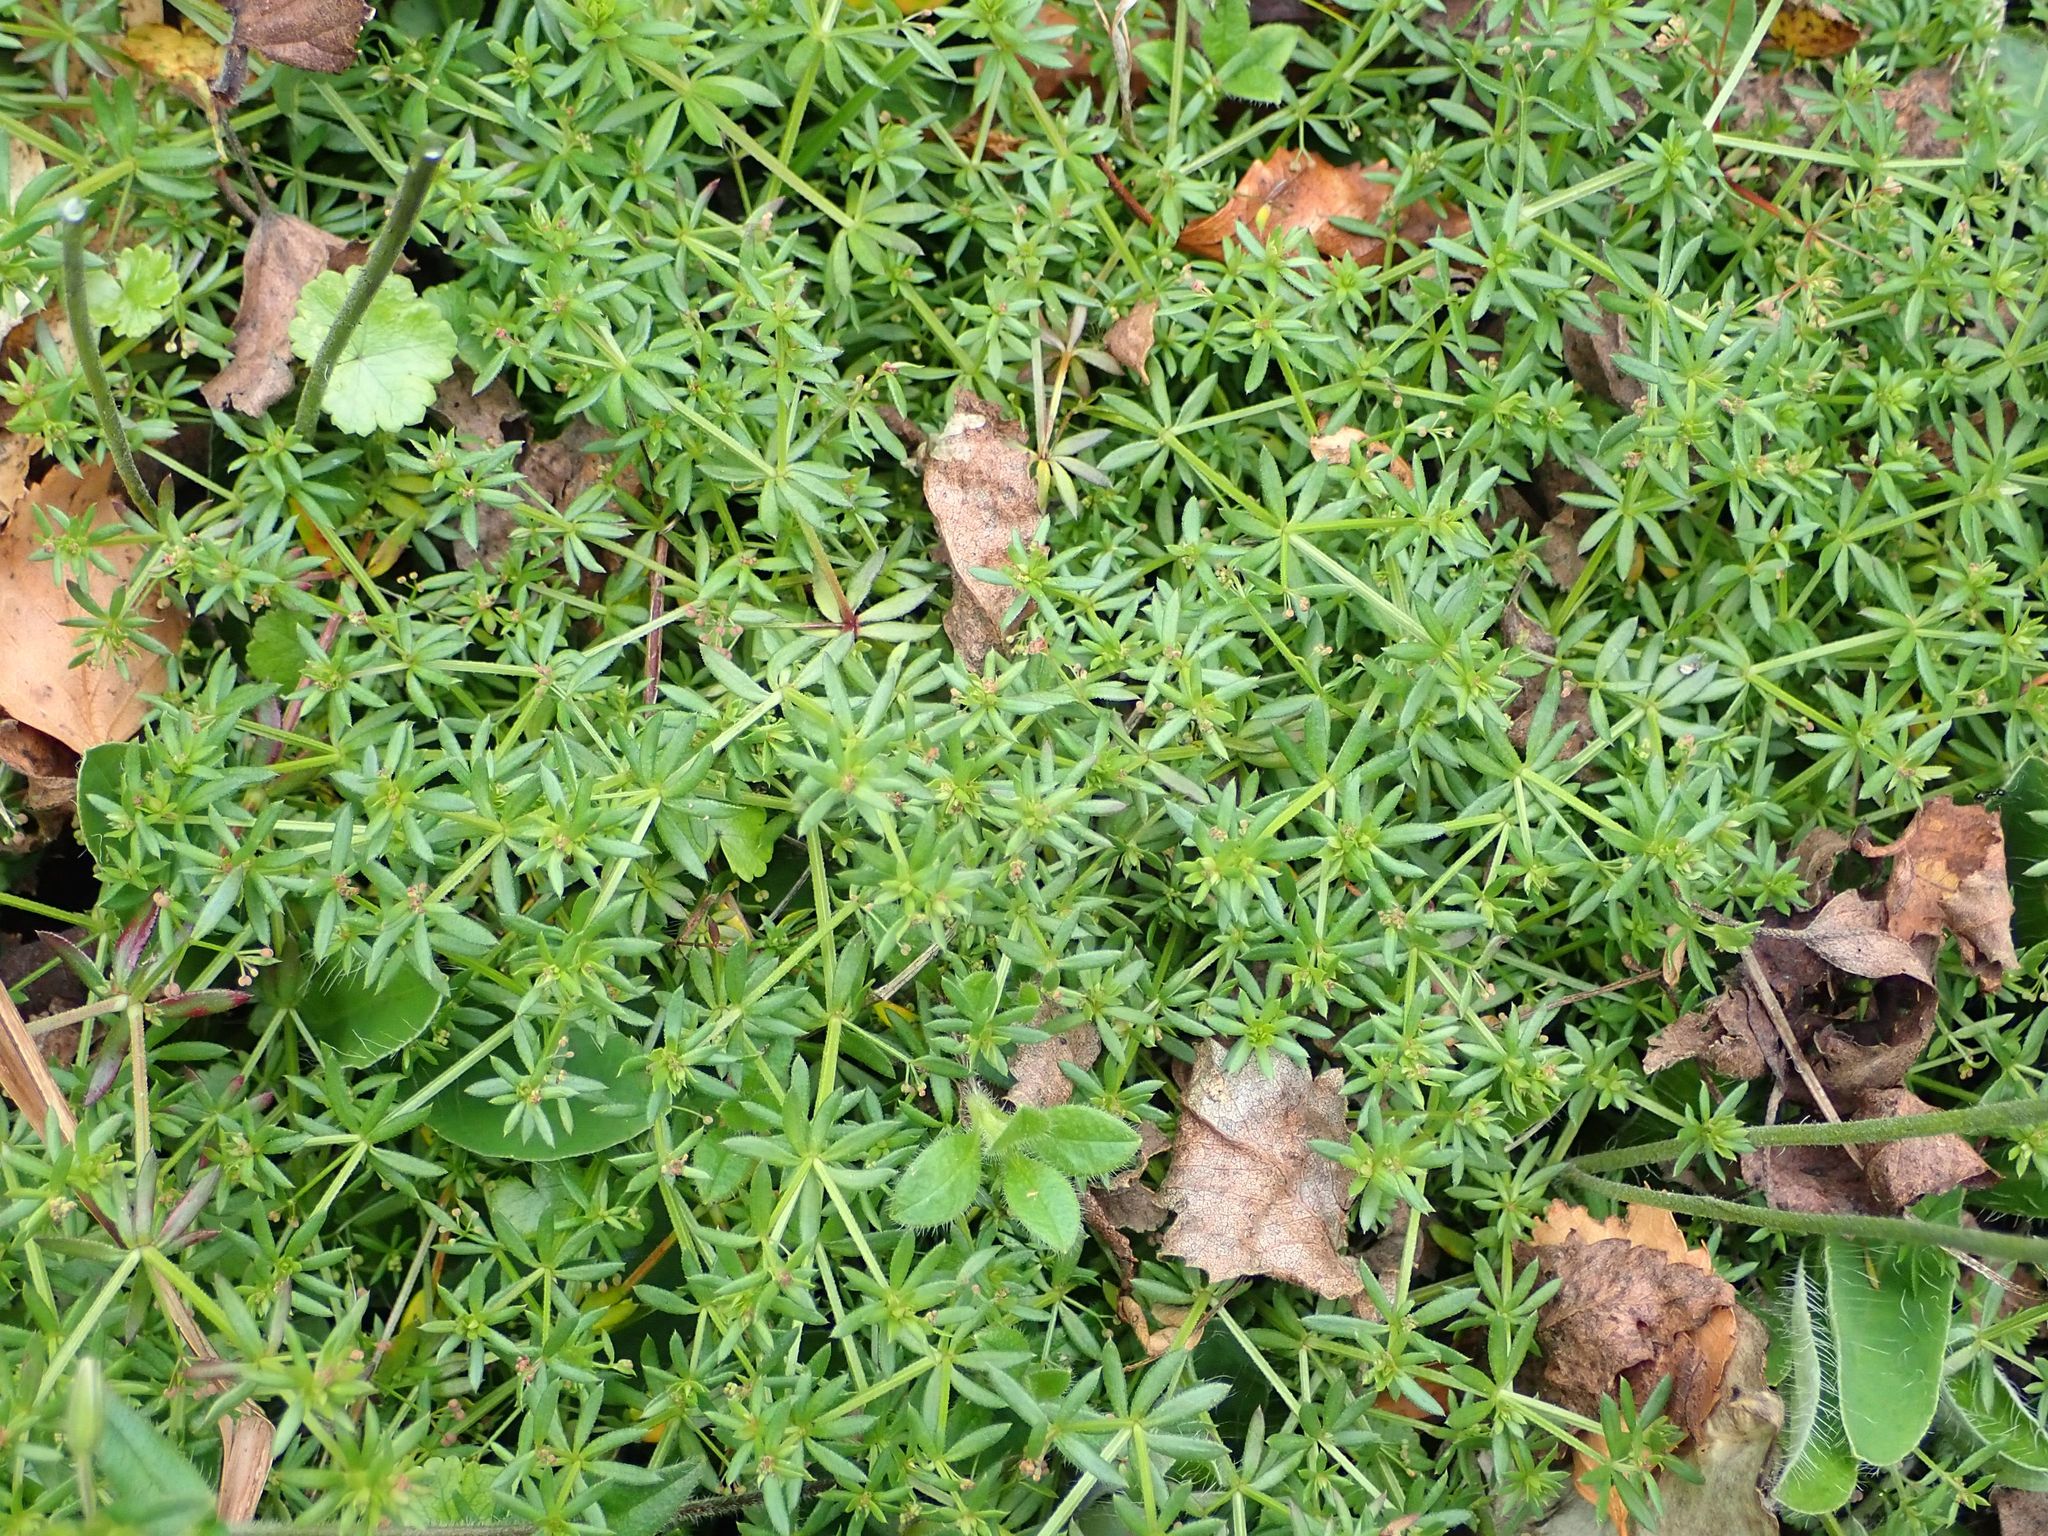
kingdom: Plantae
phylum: Tracheophyta
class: Magnoliopsida
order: Gentianales
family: Rubiaceae
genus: Sherardia
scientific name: Sherardia arvensis
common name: Field madder
